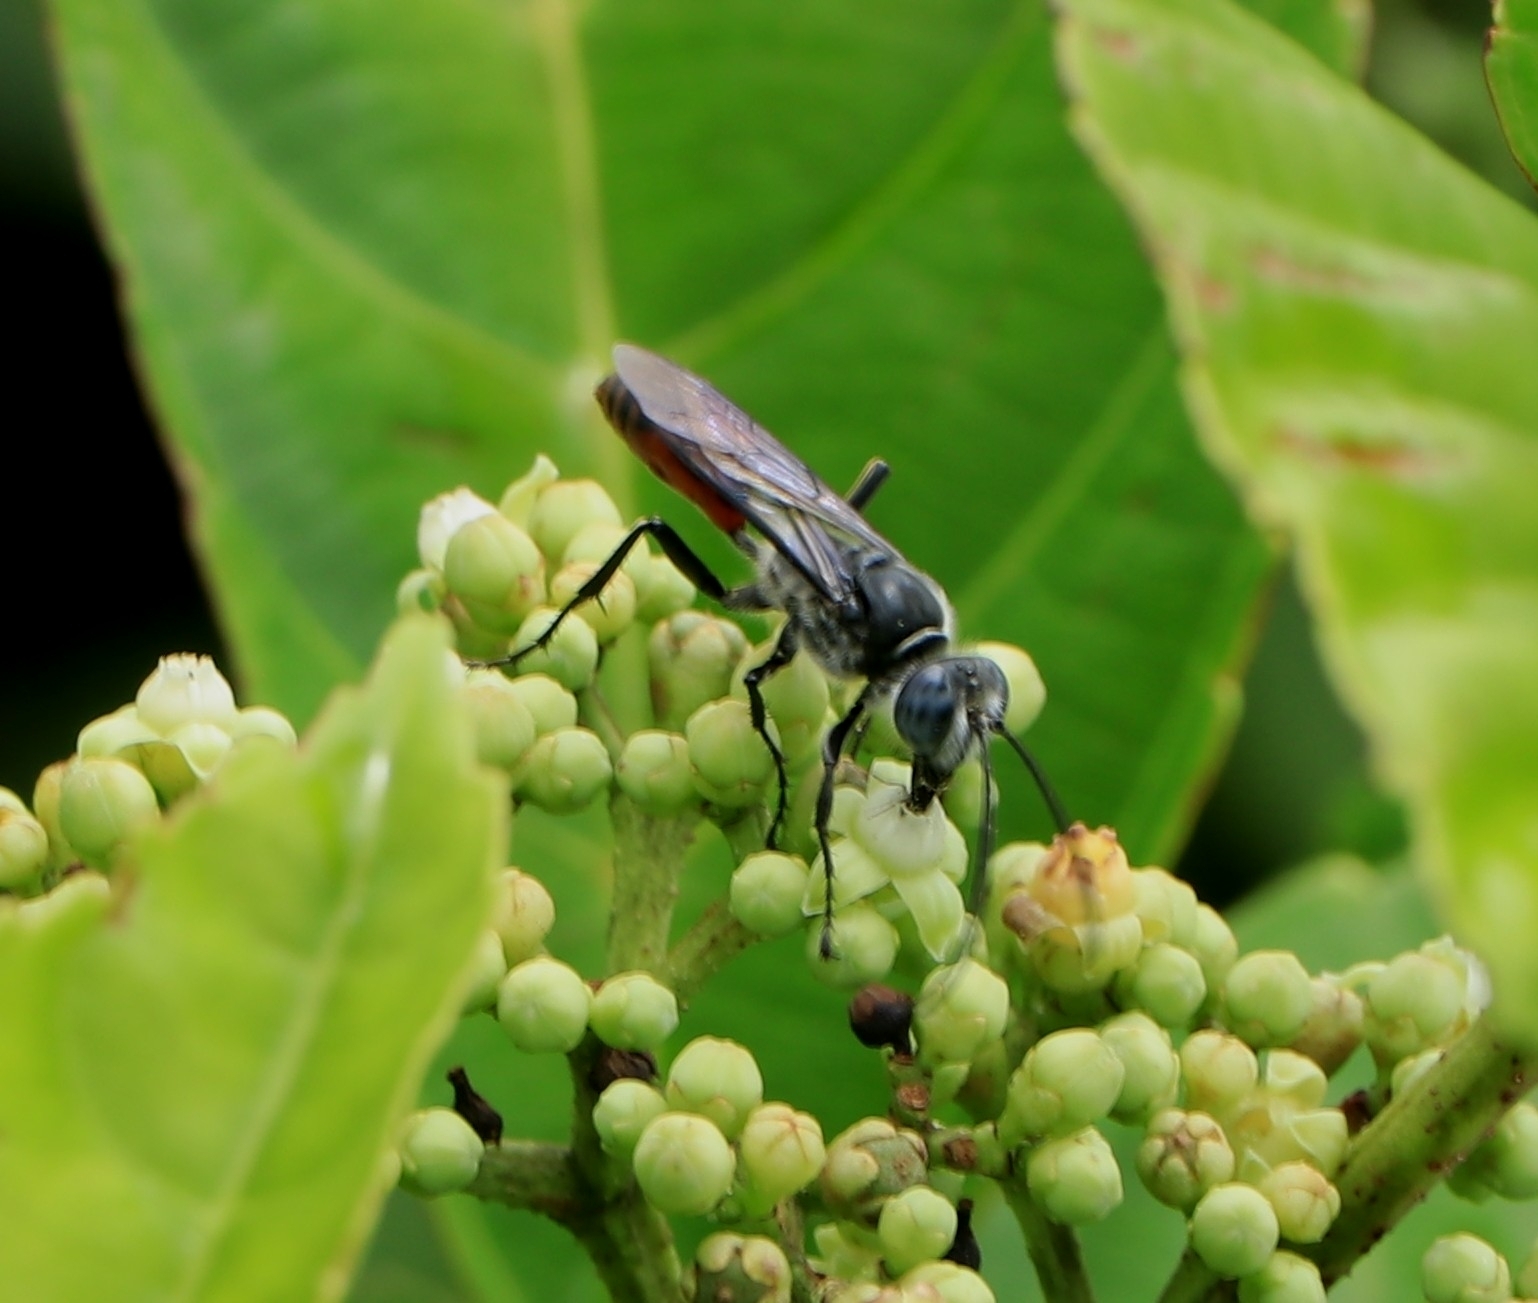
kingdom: Animalia
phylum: Arthropoda
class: Insecta
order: Hymenoptera
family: Sphecidae
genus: Sphex
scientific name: Sphex sericeus
